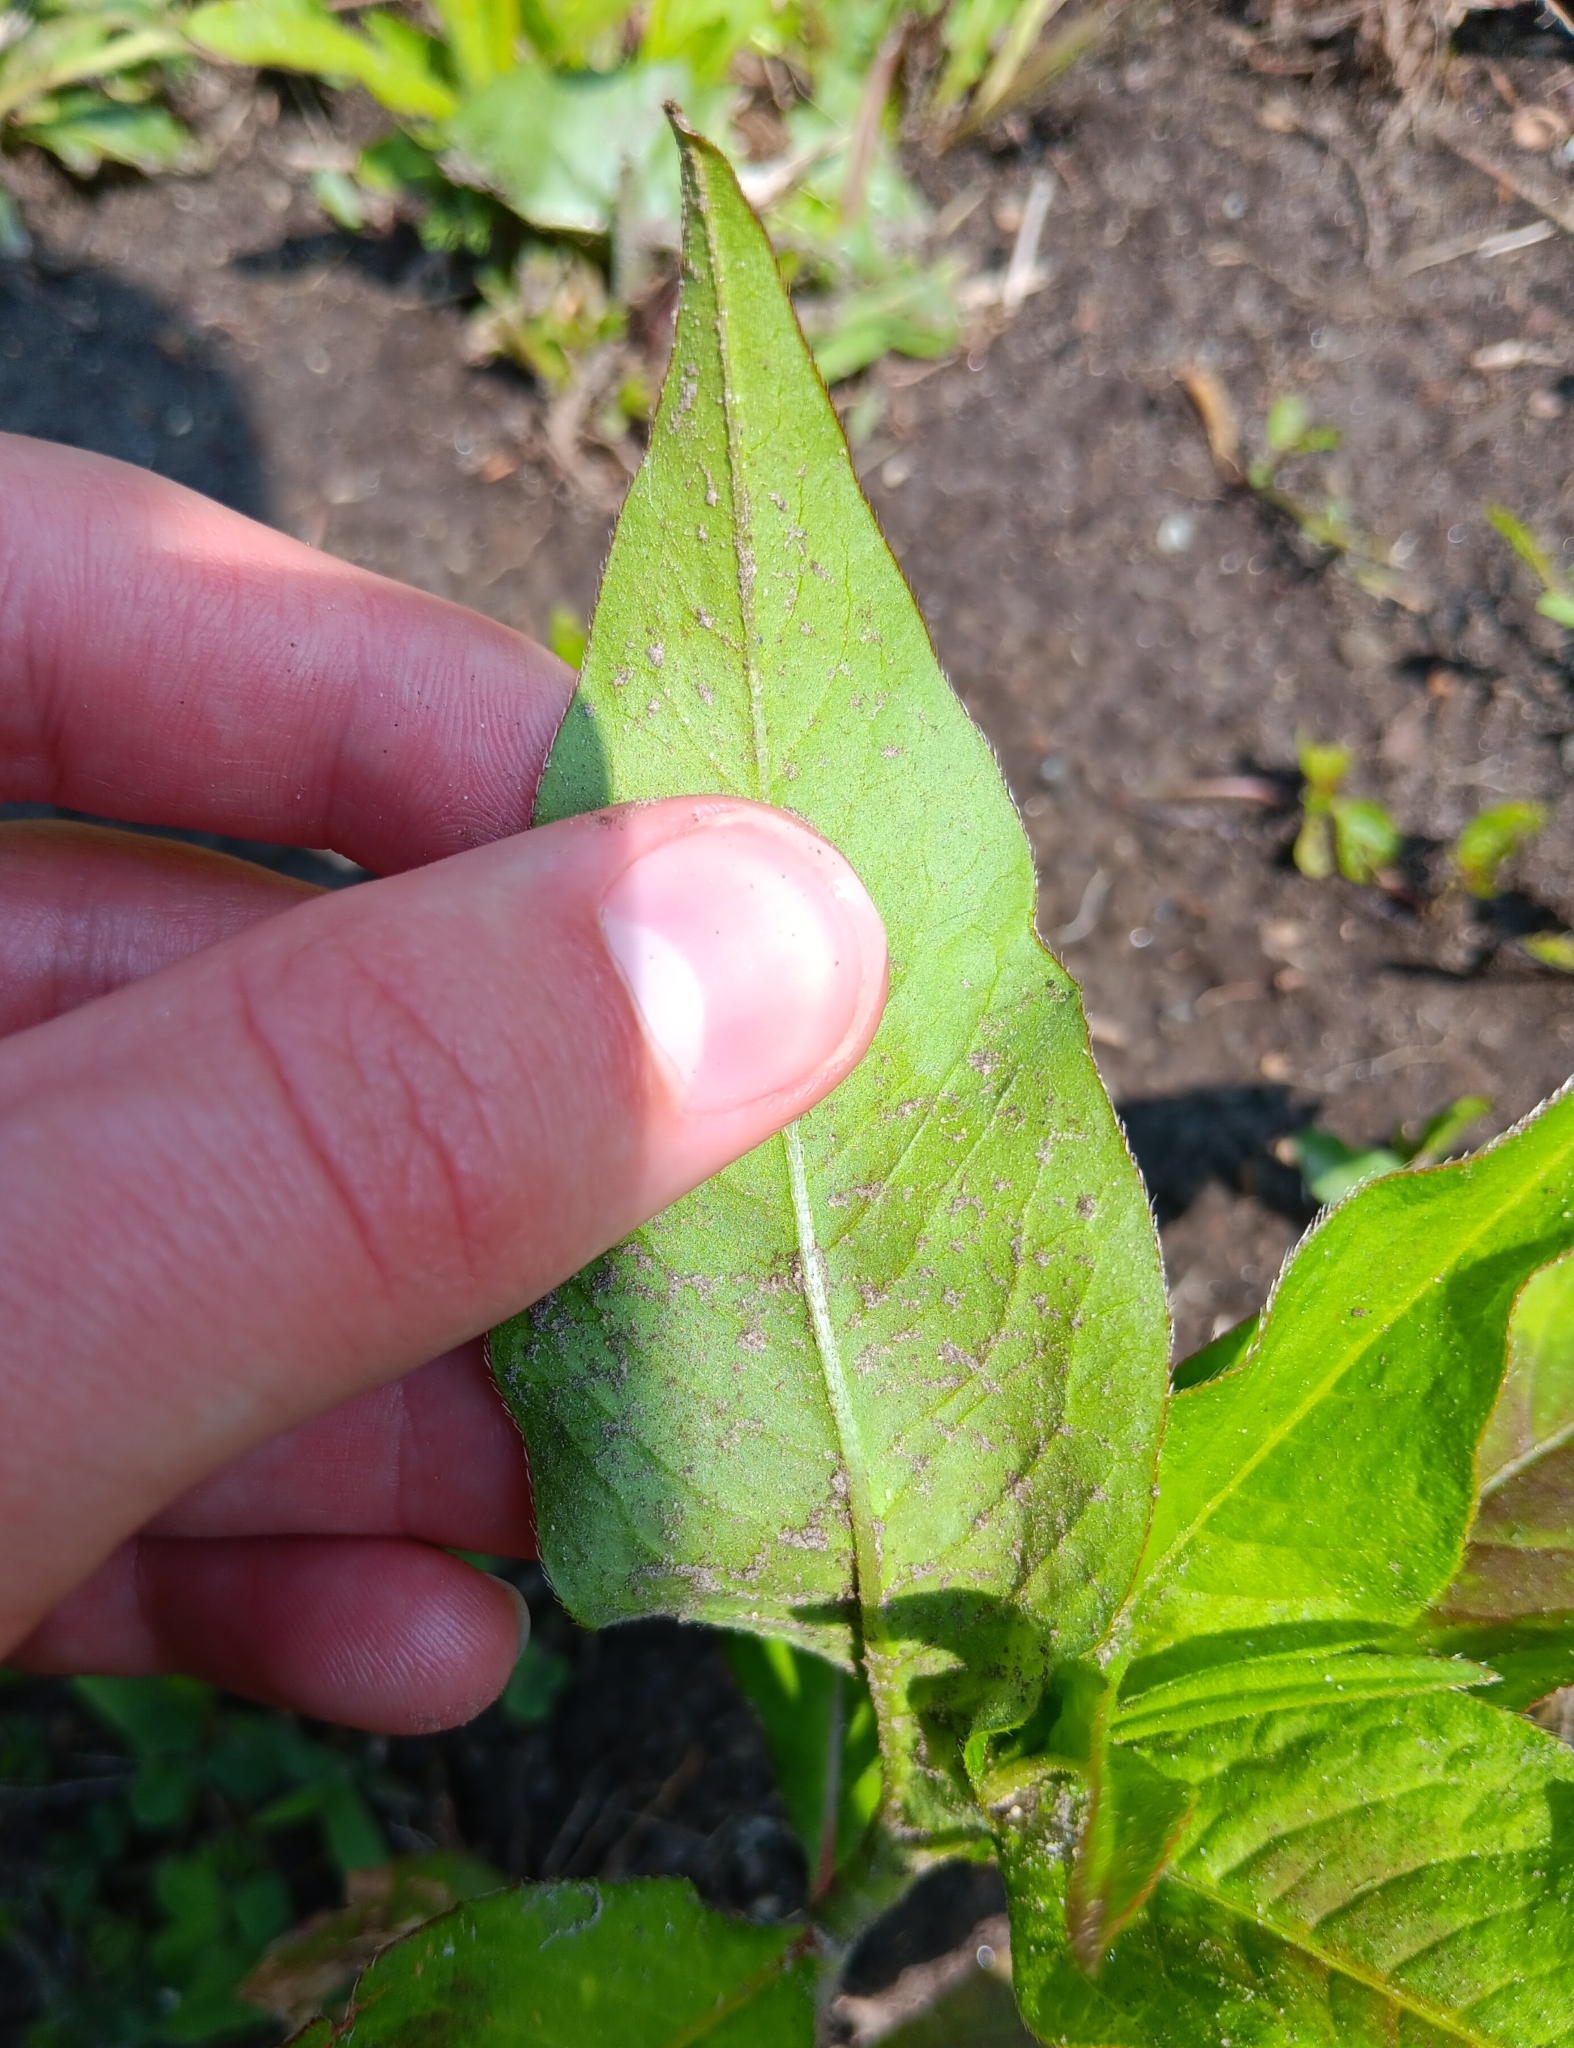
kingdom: Plantae
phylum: Tracheophyta
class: Magnoliopsida
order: Caryophyllales
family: Polygonaceae
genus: Persicaria
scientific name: Persicaria maculosa
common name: Redshank
